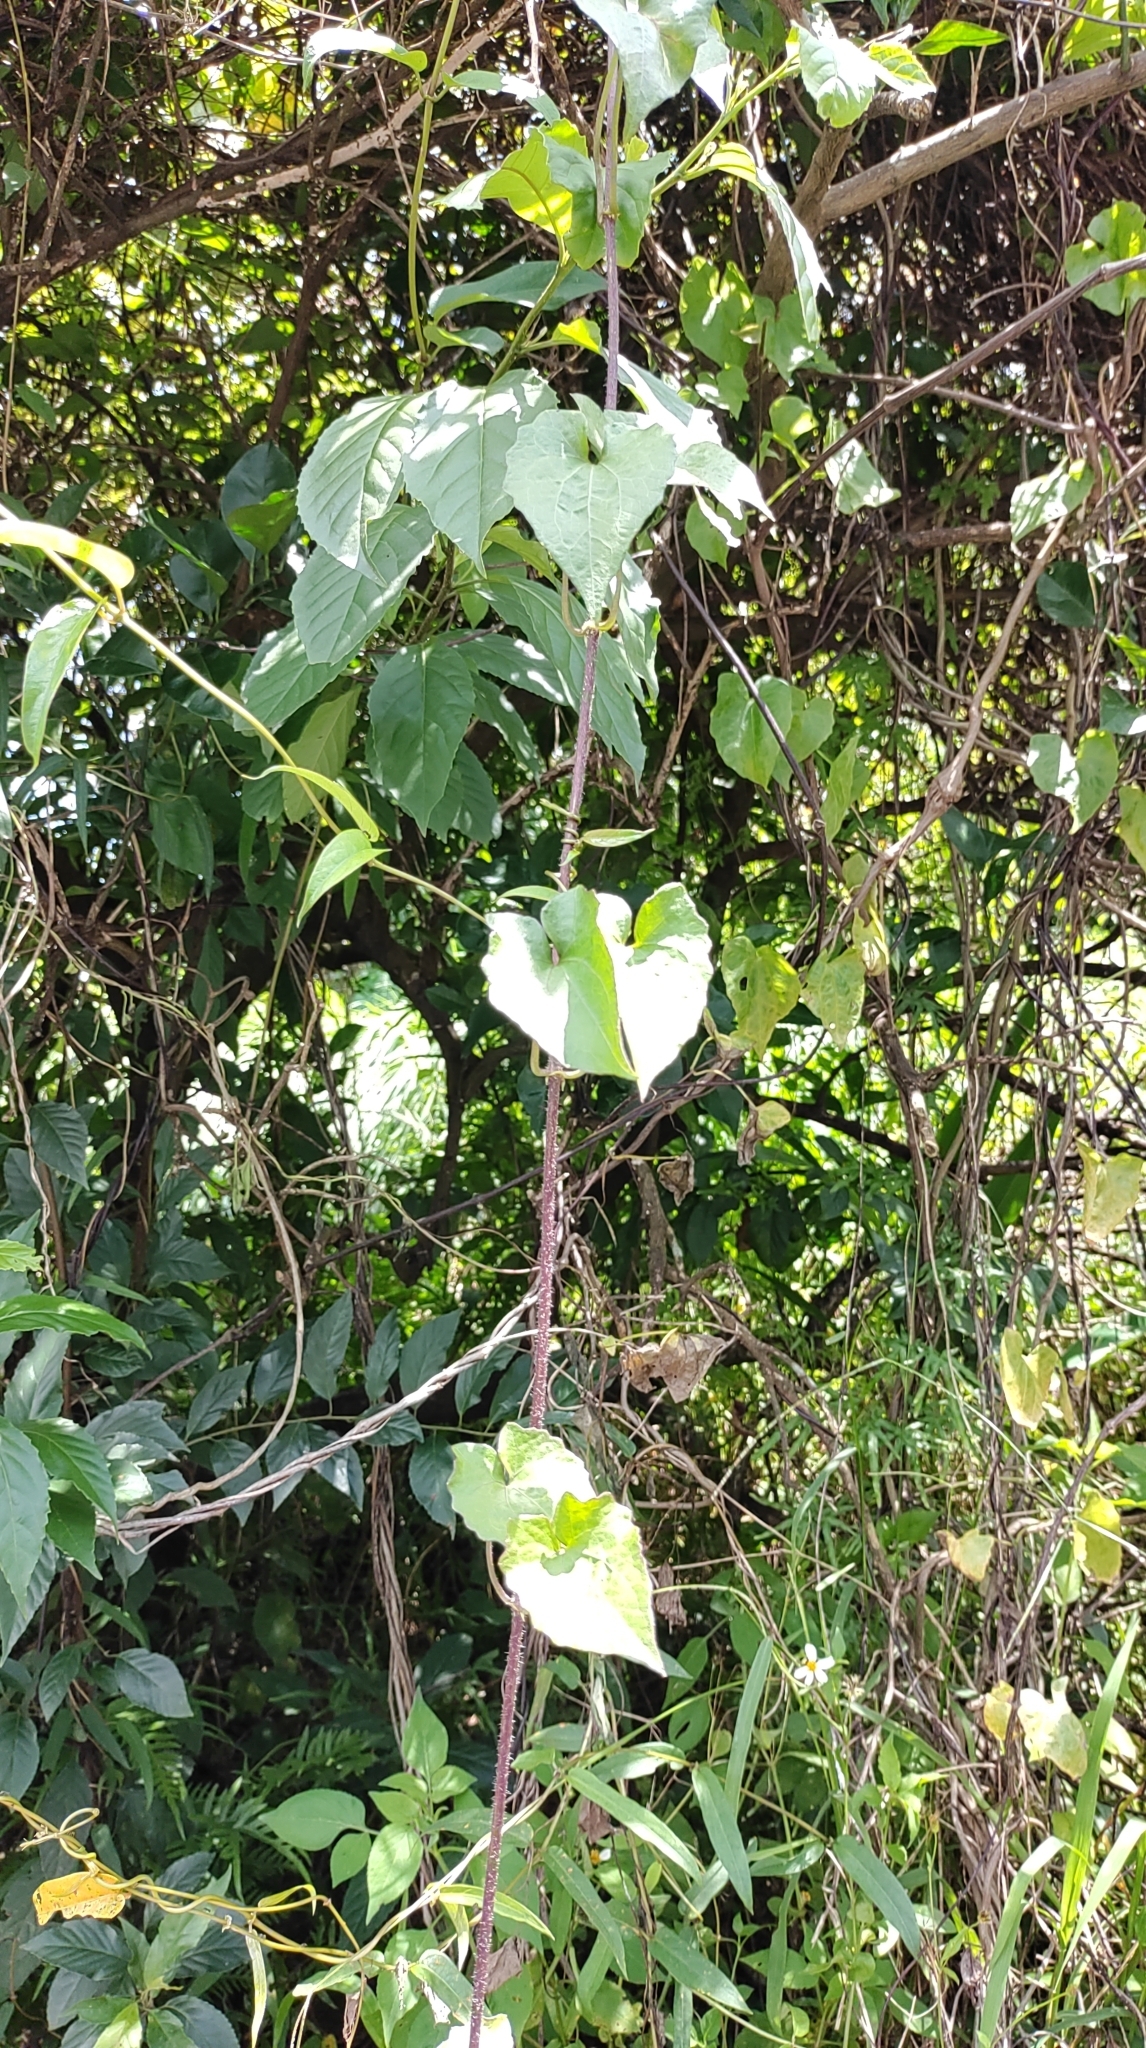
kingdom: Plantae
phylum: Tracheophyta
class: Magnoliopsida
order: Asterales
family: Asteraceae
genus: Mikania
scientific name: Mikania micrantha
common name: Mile-a-minute
